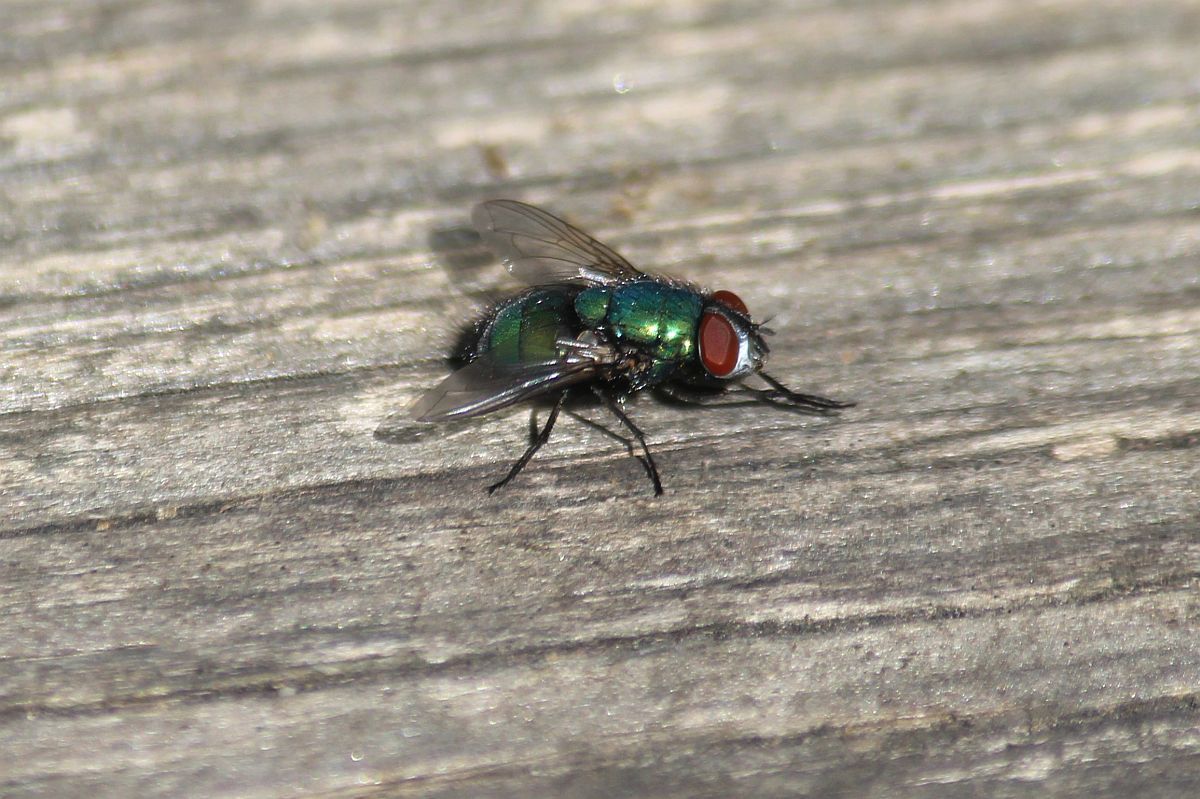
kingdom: Animalia
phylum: Arthropoda
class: Insecta
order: Diptera
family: Calliphoridae
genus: Lucilia
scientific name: Lucilia sericata
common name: Blow fly
